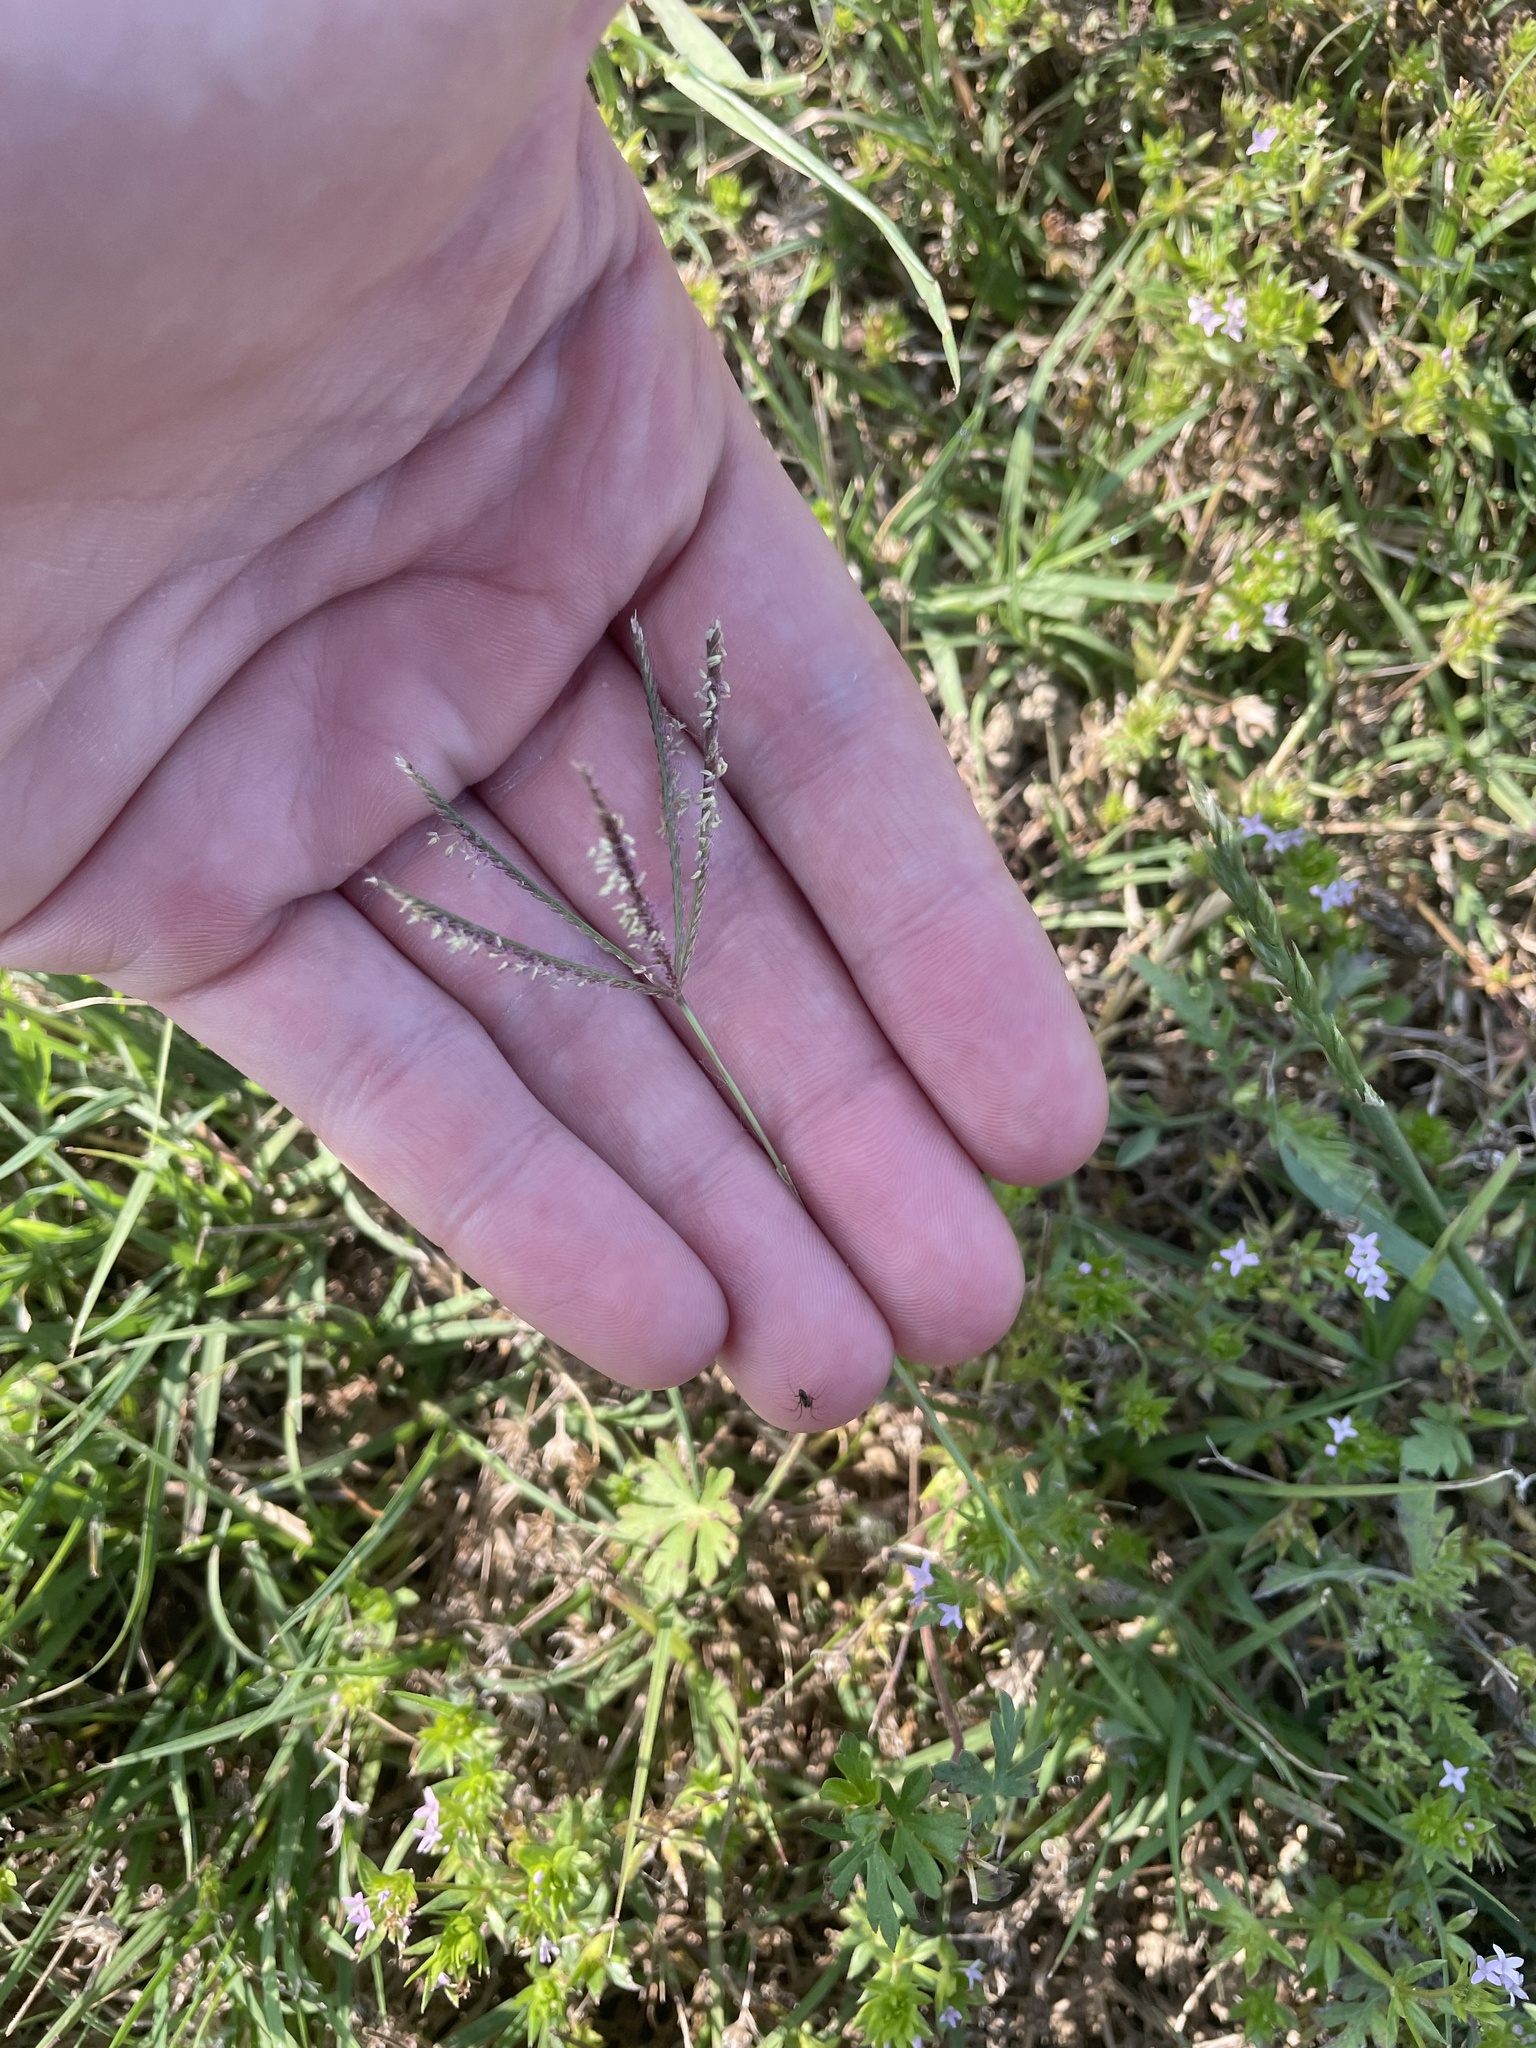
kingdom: Plantae
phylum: Tracheophyta
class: Liliopsida
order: Poales
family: Poaceae
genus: Cynodon
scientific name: Cynodon dactylon
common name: Bermuda grass
